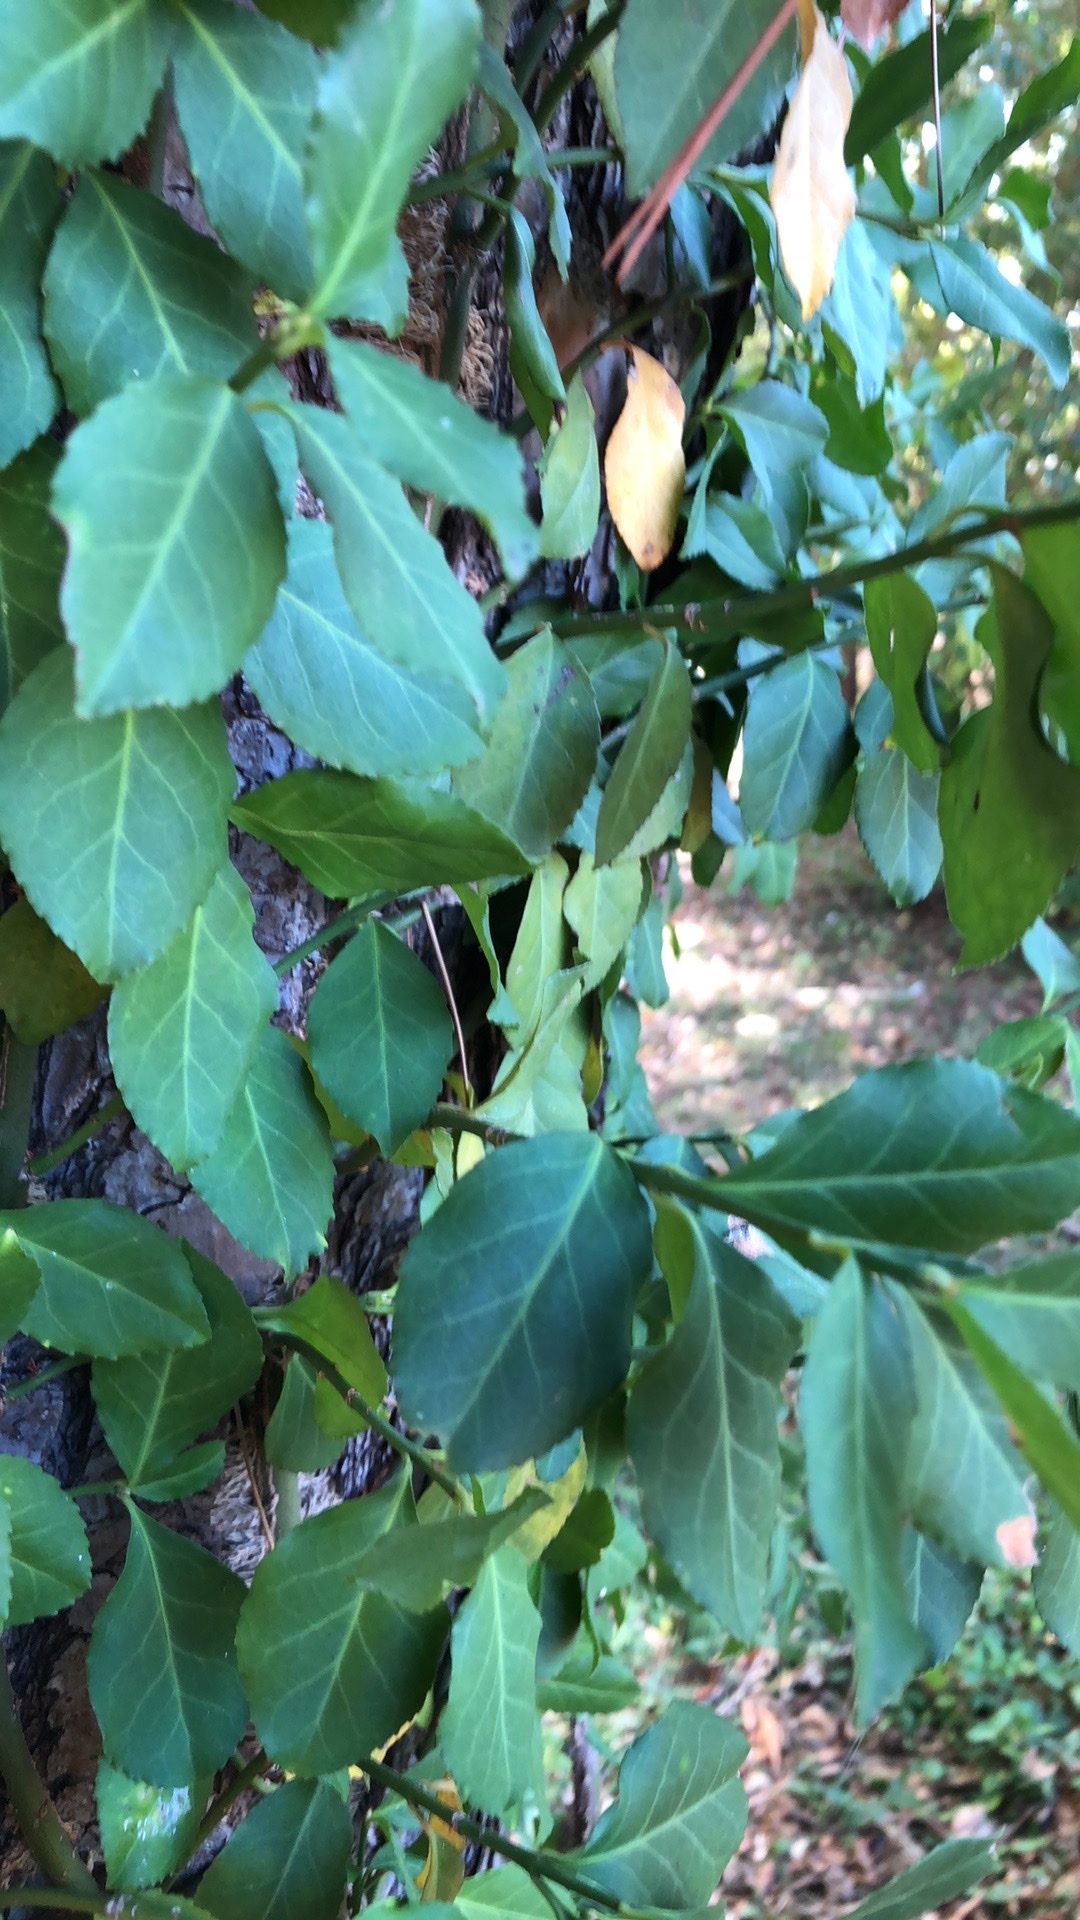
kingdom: Plantae
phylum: Tracheophyta
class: Magnoliopsida
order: Celastrales
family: Celastraceae
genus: Euonymus
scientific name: Euonymus fortunei
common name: Climbing euonymus
